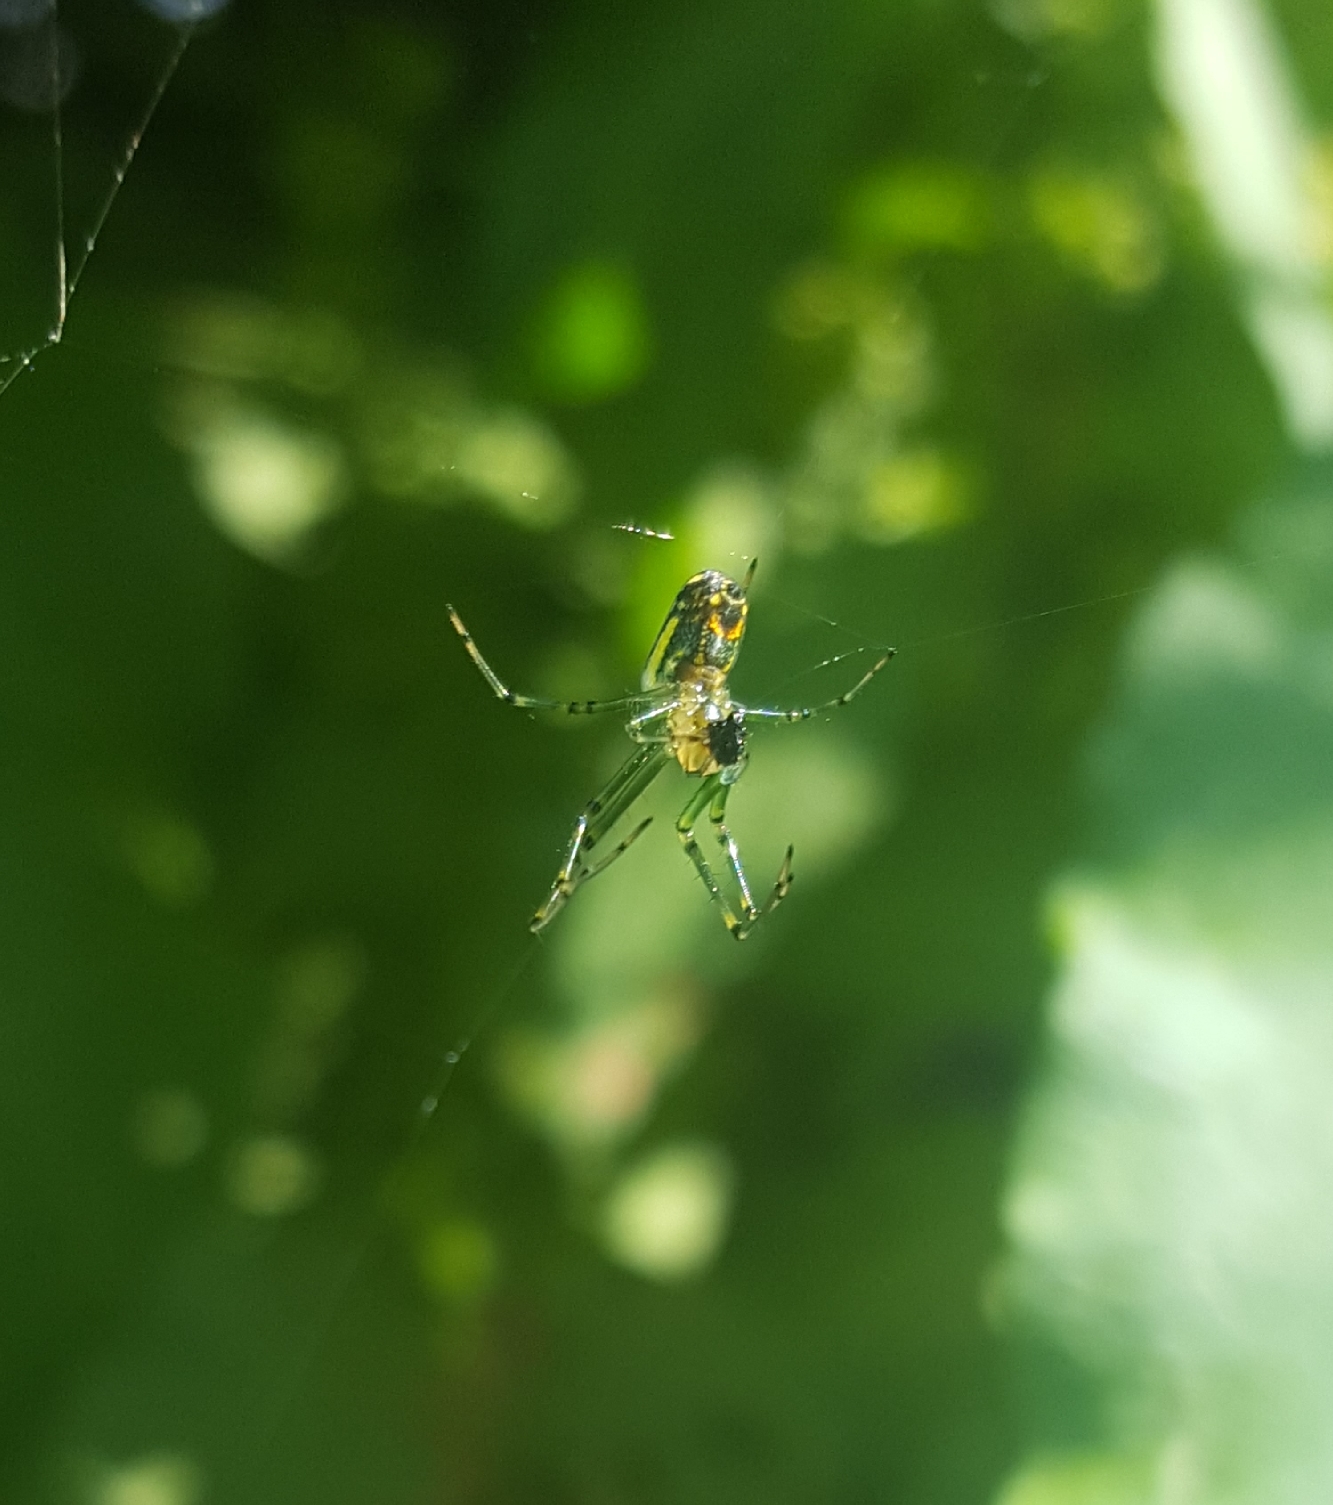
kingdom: Animalia
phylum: Arthropoda
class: Arachnida
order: Araneae
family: Tetragnathidae
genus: Leucauge
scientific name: Leucauge venusta
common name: Longjawed orb weavers
